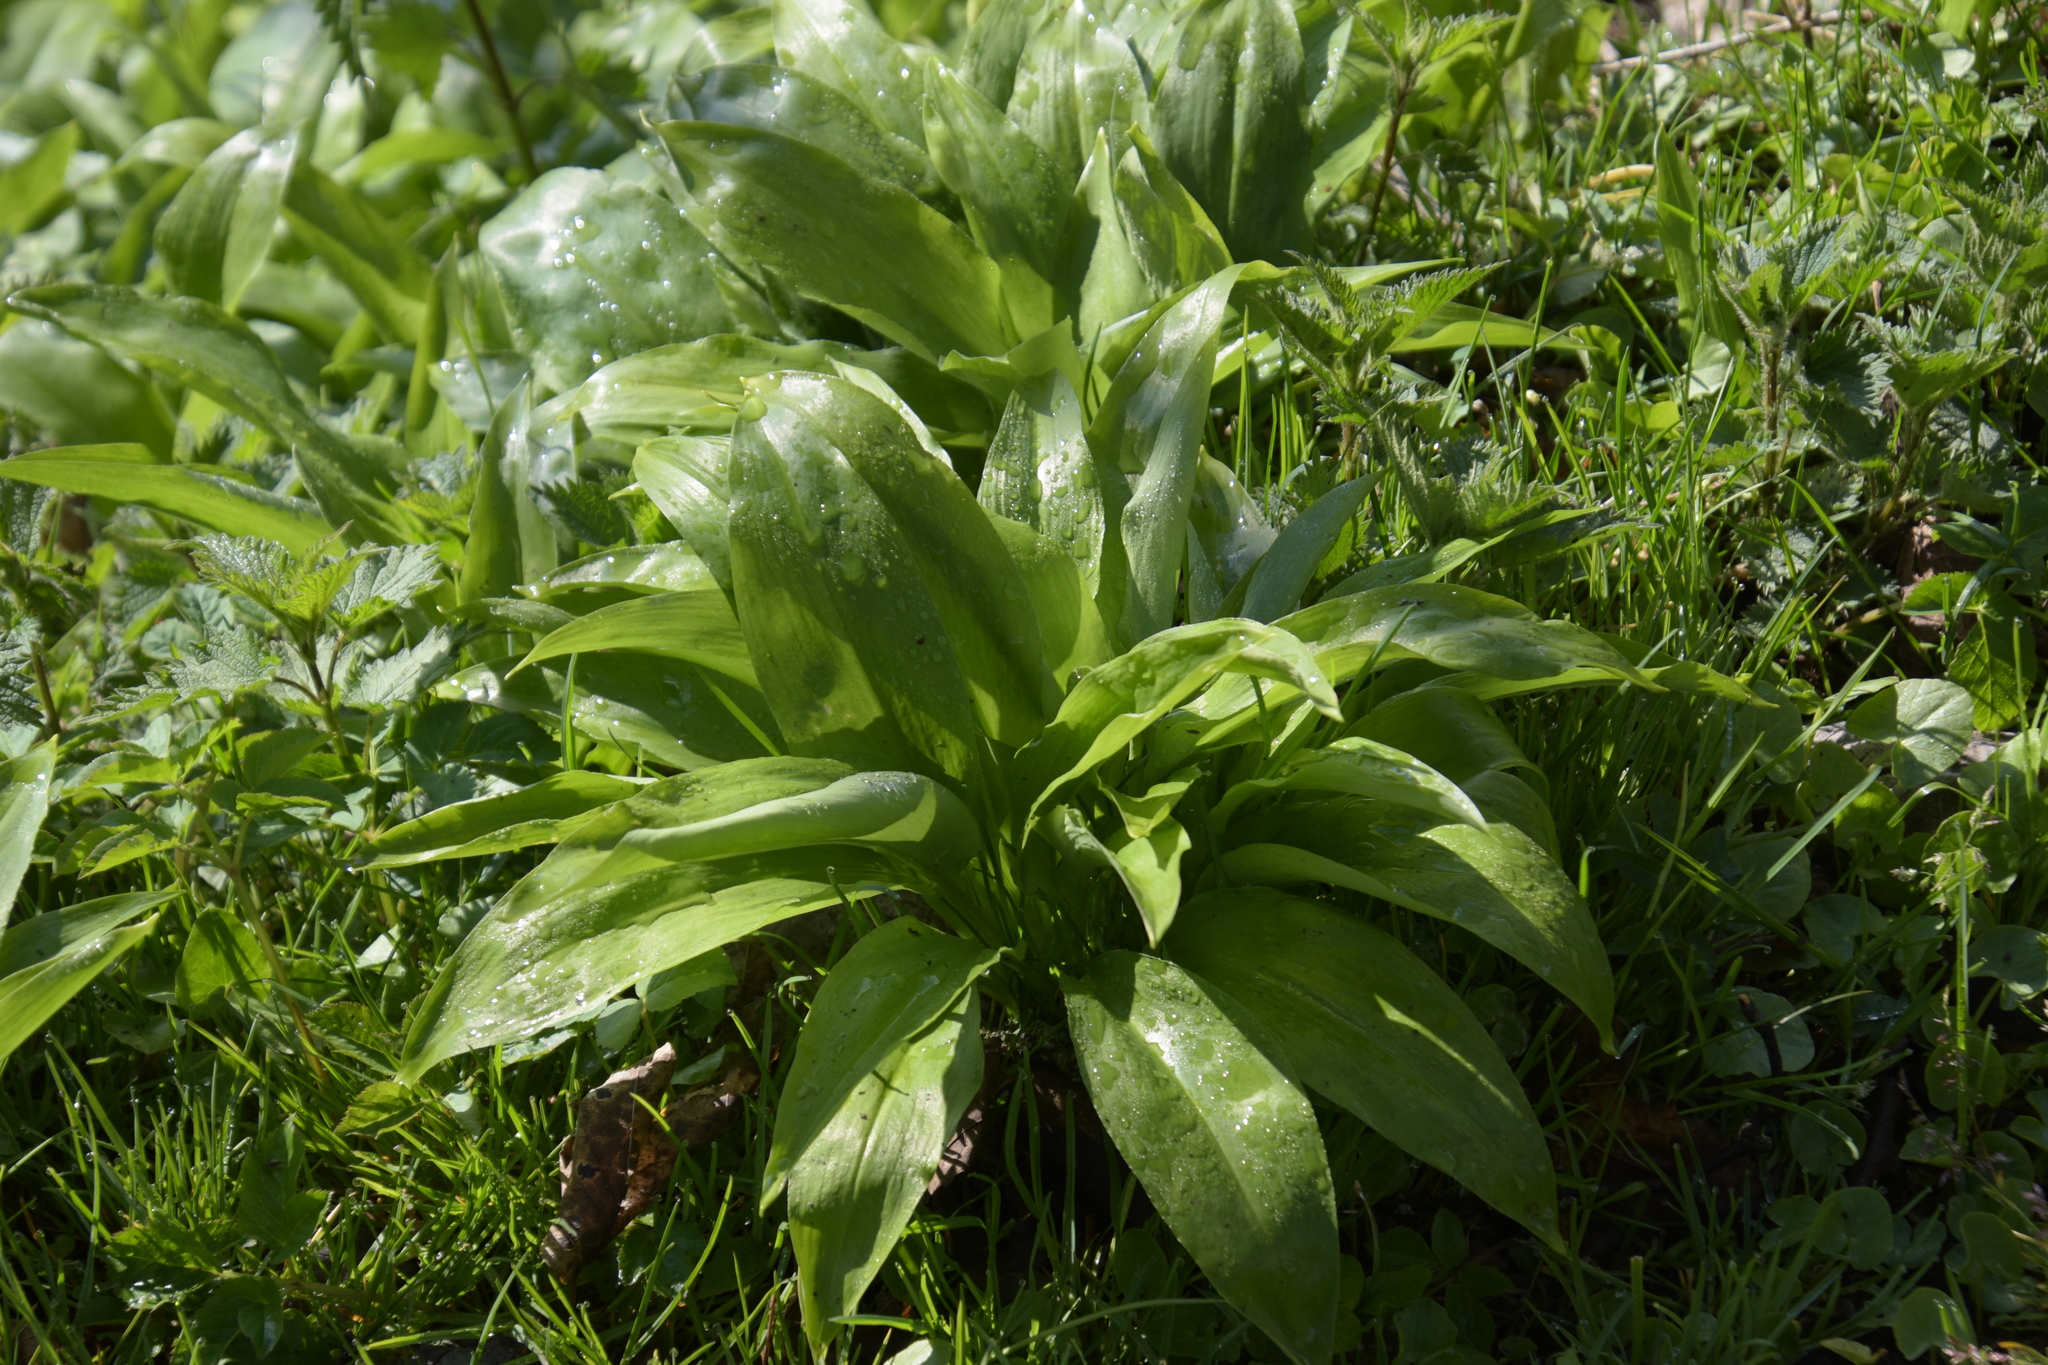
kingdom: Plantae
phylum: Tracheophyta
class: Liliopsida
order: Asparagales
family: Amaryllidaceae
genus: Allium
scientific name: Allium ursinum
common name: Ramsons
